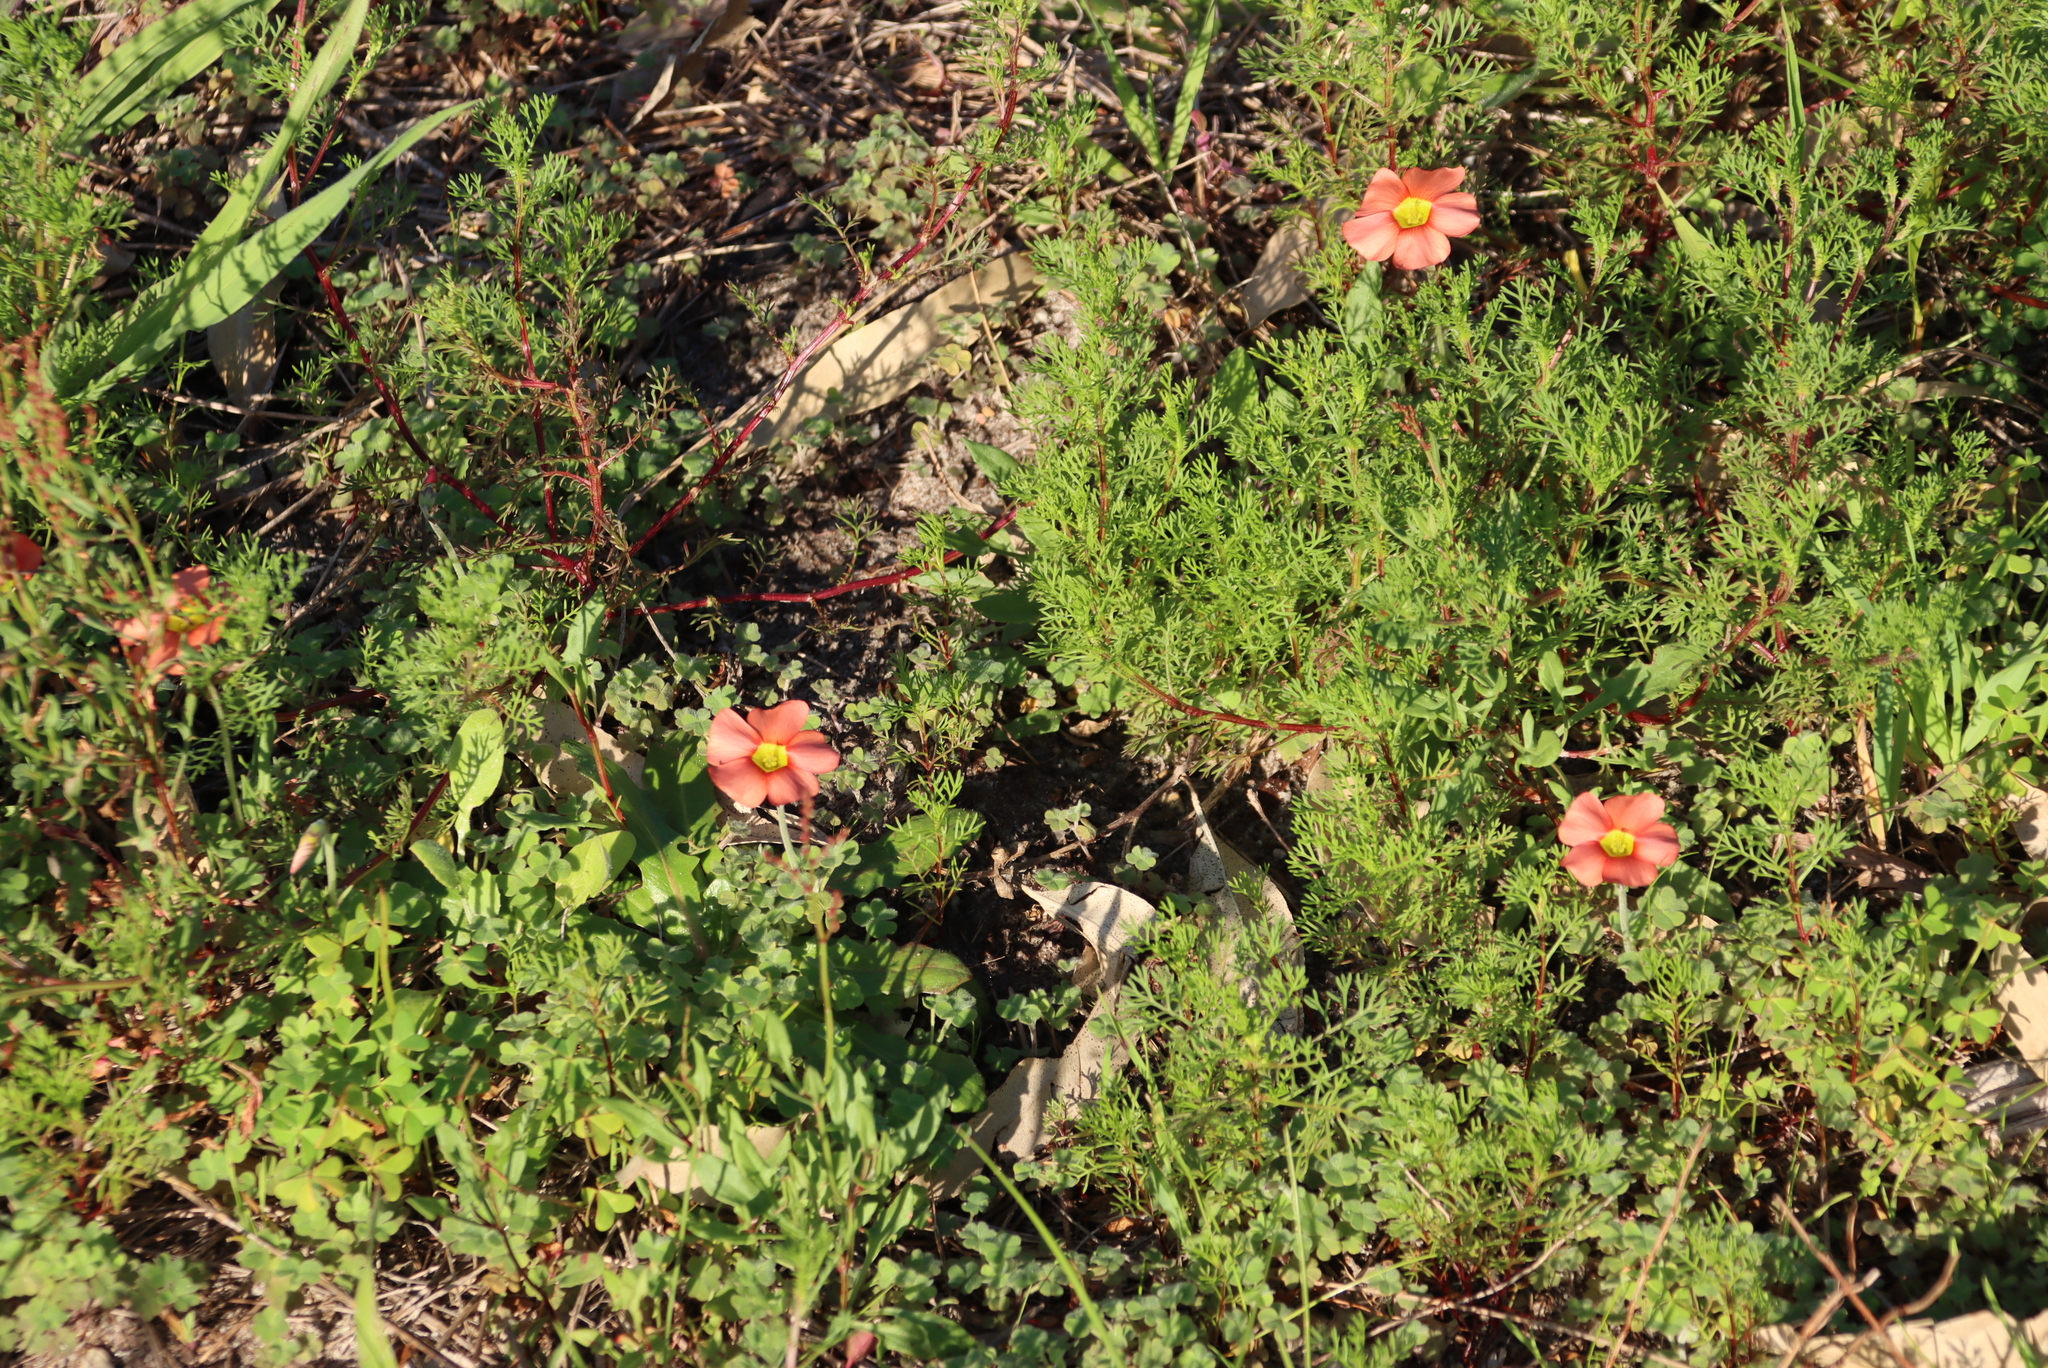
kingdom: Plantae
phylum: Tracheophyta
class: Magnoliopsida
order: Oxalidales
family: Oxalidaceae
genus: Oxalis
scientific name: Oxalis obtusa
